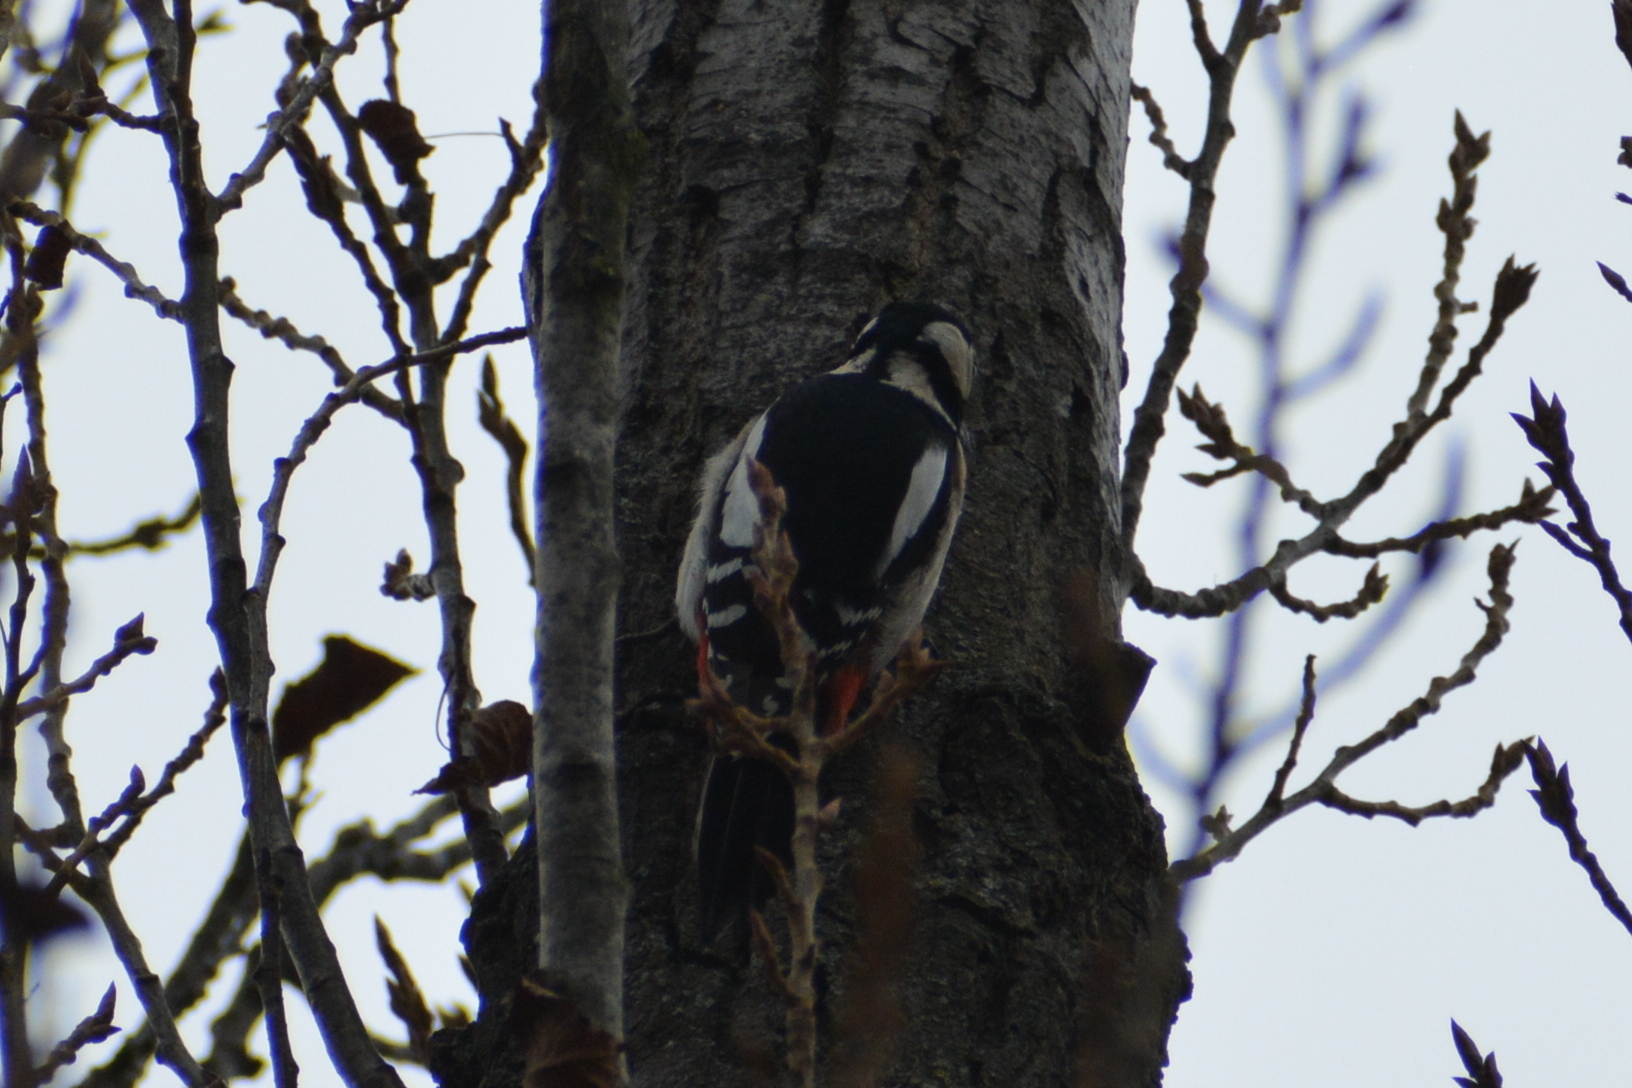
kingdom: Animalia
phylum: Chordata
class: Aves
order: Piciformes
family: Picidae
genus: Dendrocopos
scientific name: Dendrocopos major
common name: Great spotted woodpecker
